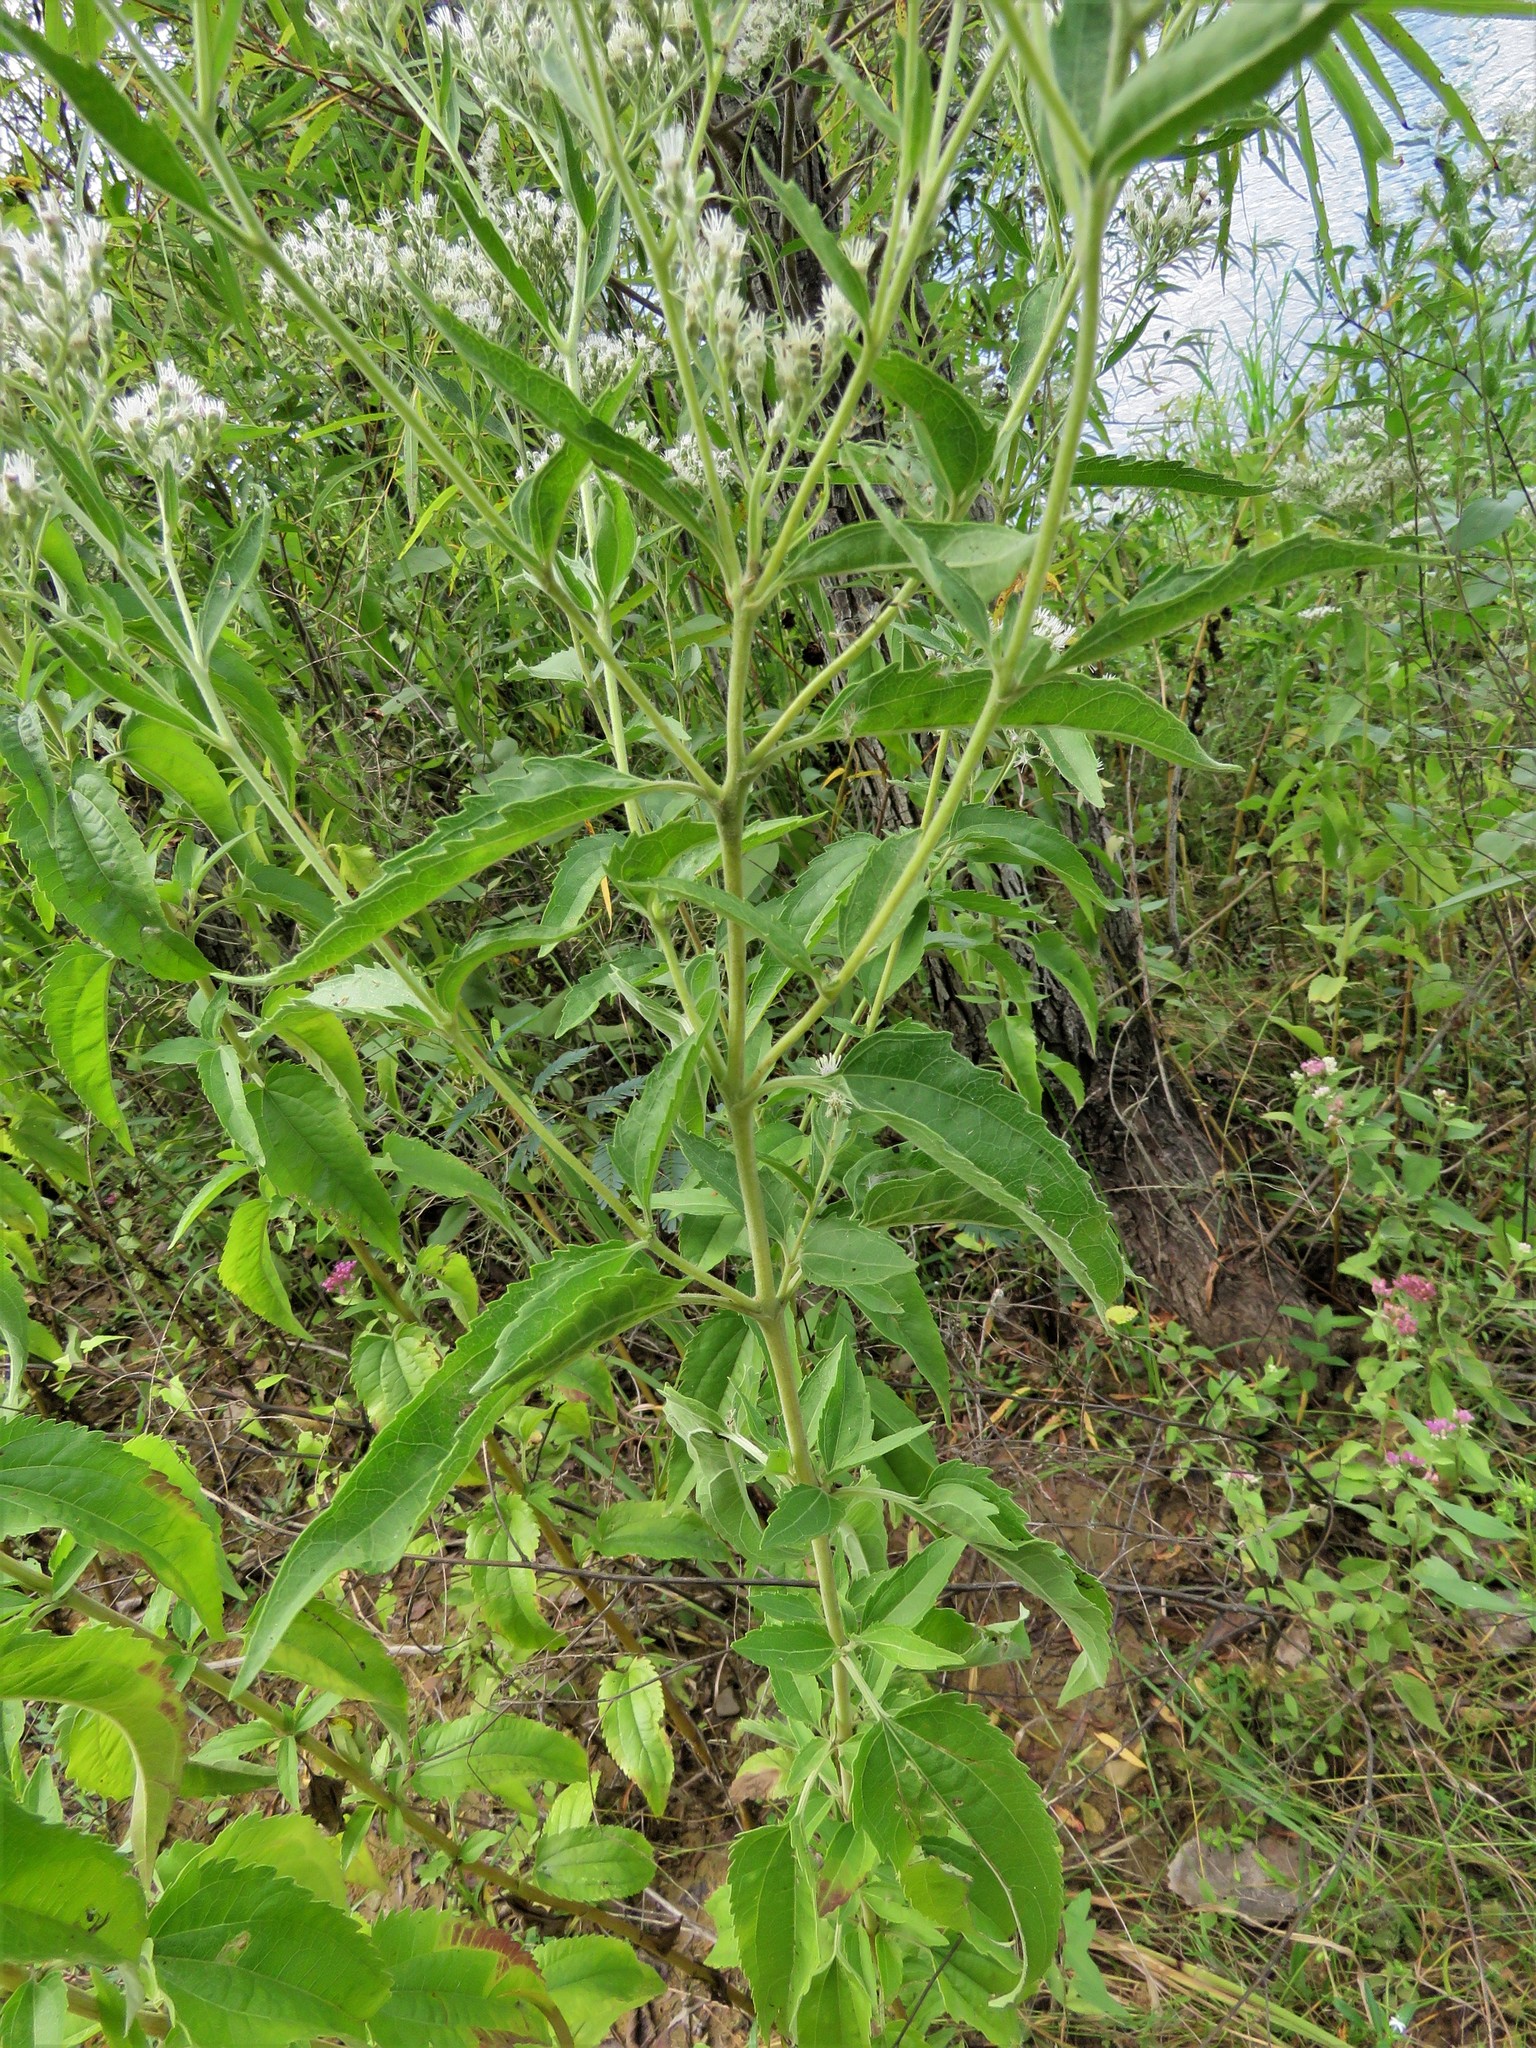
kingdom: Plantae
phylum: Tracheophyta
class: Magnoliopsida
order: Asterales
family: Asteraceae
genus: Eupatorium
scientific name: Eupatorium serotinum
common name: Late boneset
